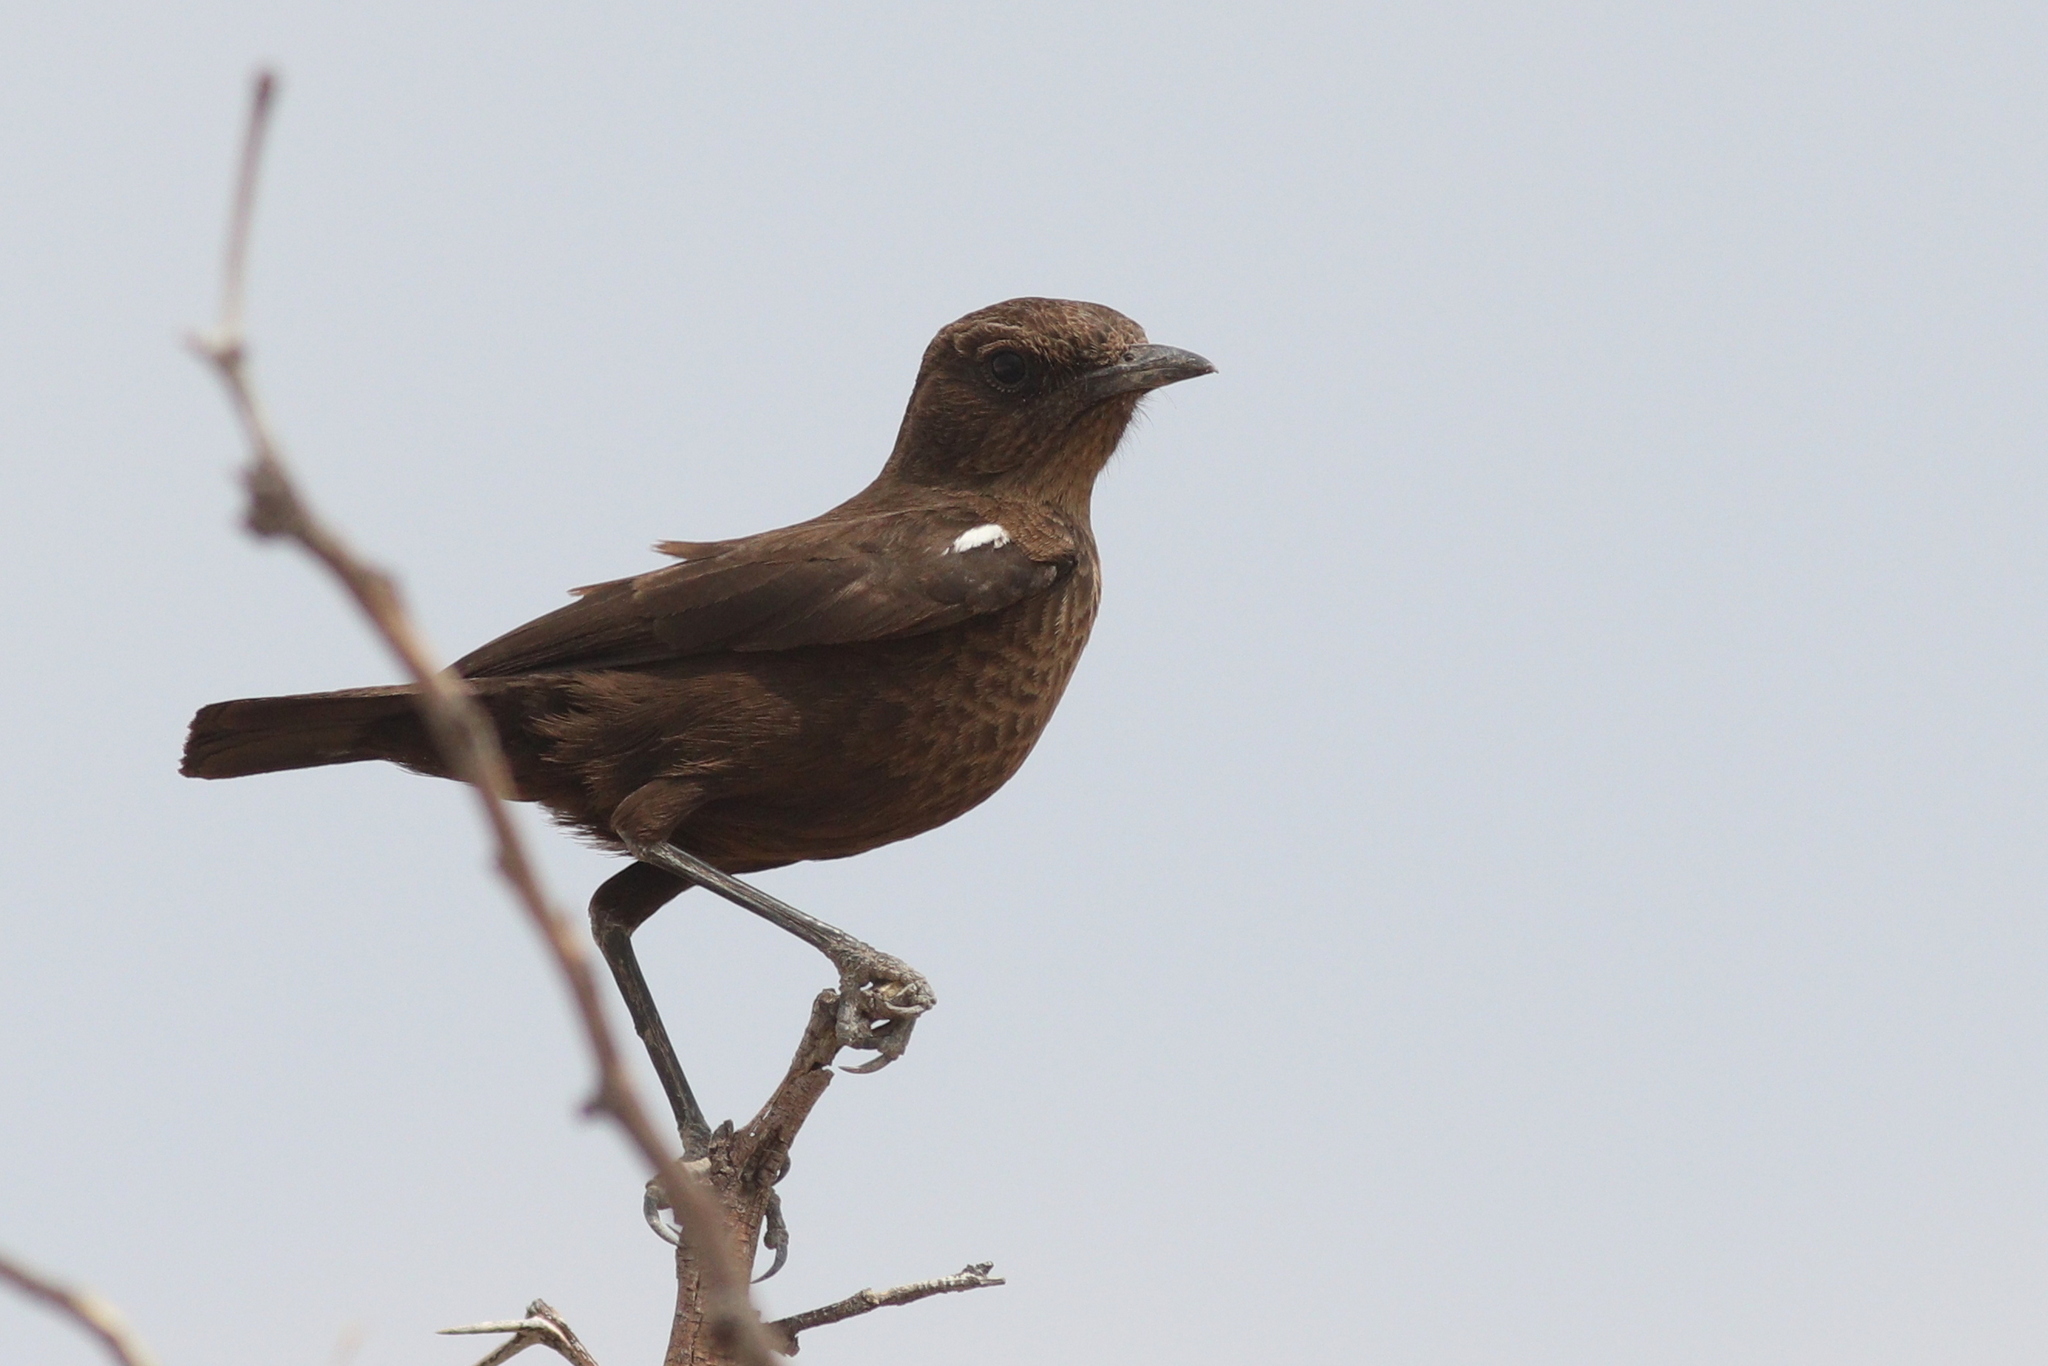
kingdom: Animalia
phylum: Chordata
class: Aves
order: Passeriformes
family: Muscicapidae
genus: Myrmecocichla
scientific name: Myrmecocichla formicivora
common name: Ant-eating chat
